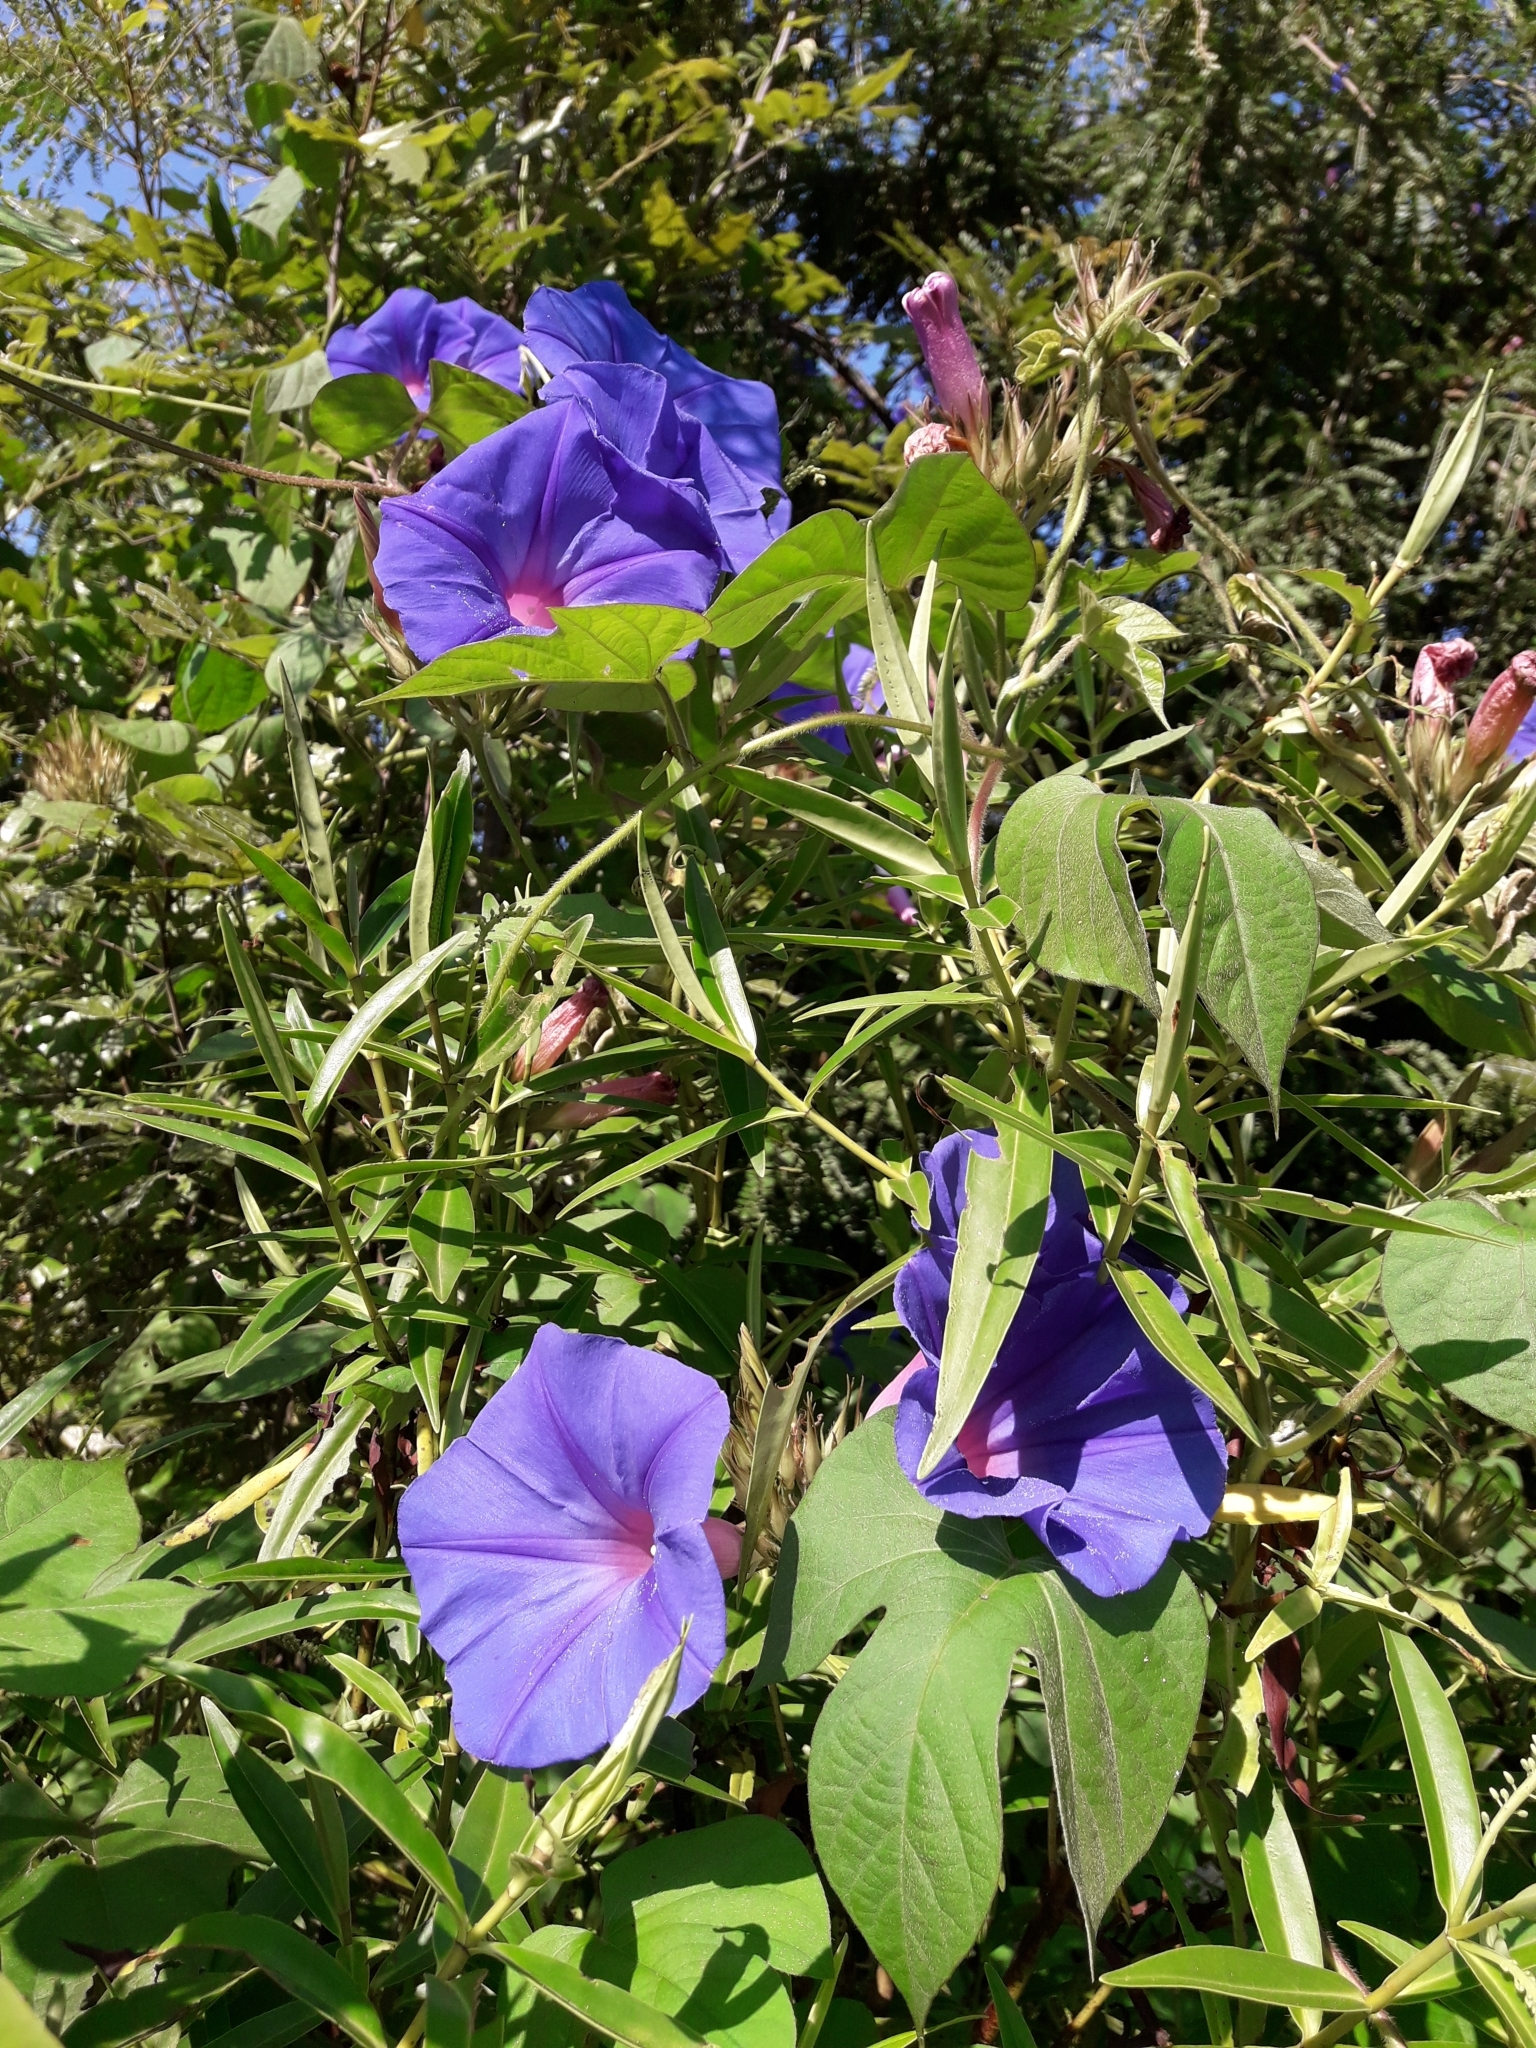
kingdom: Plantae
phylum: Tracheophyta
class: Magnoliopsida
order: Solanales
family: Convolvulaceae
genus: Ipomoea
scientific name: Ipomoea indica
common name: Blue dawnflower
